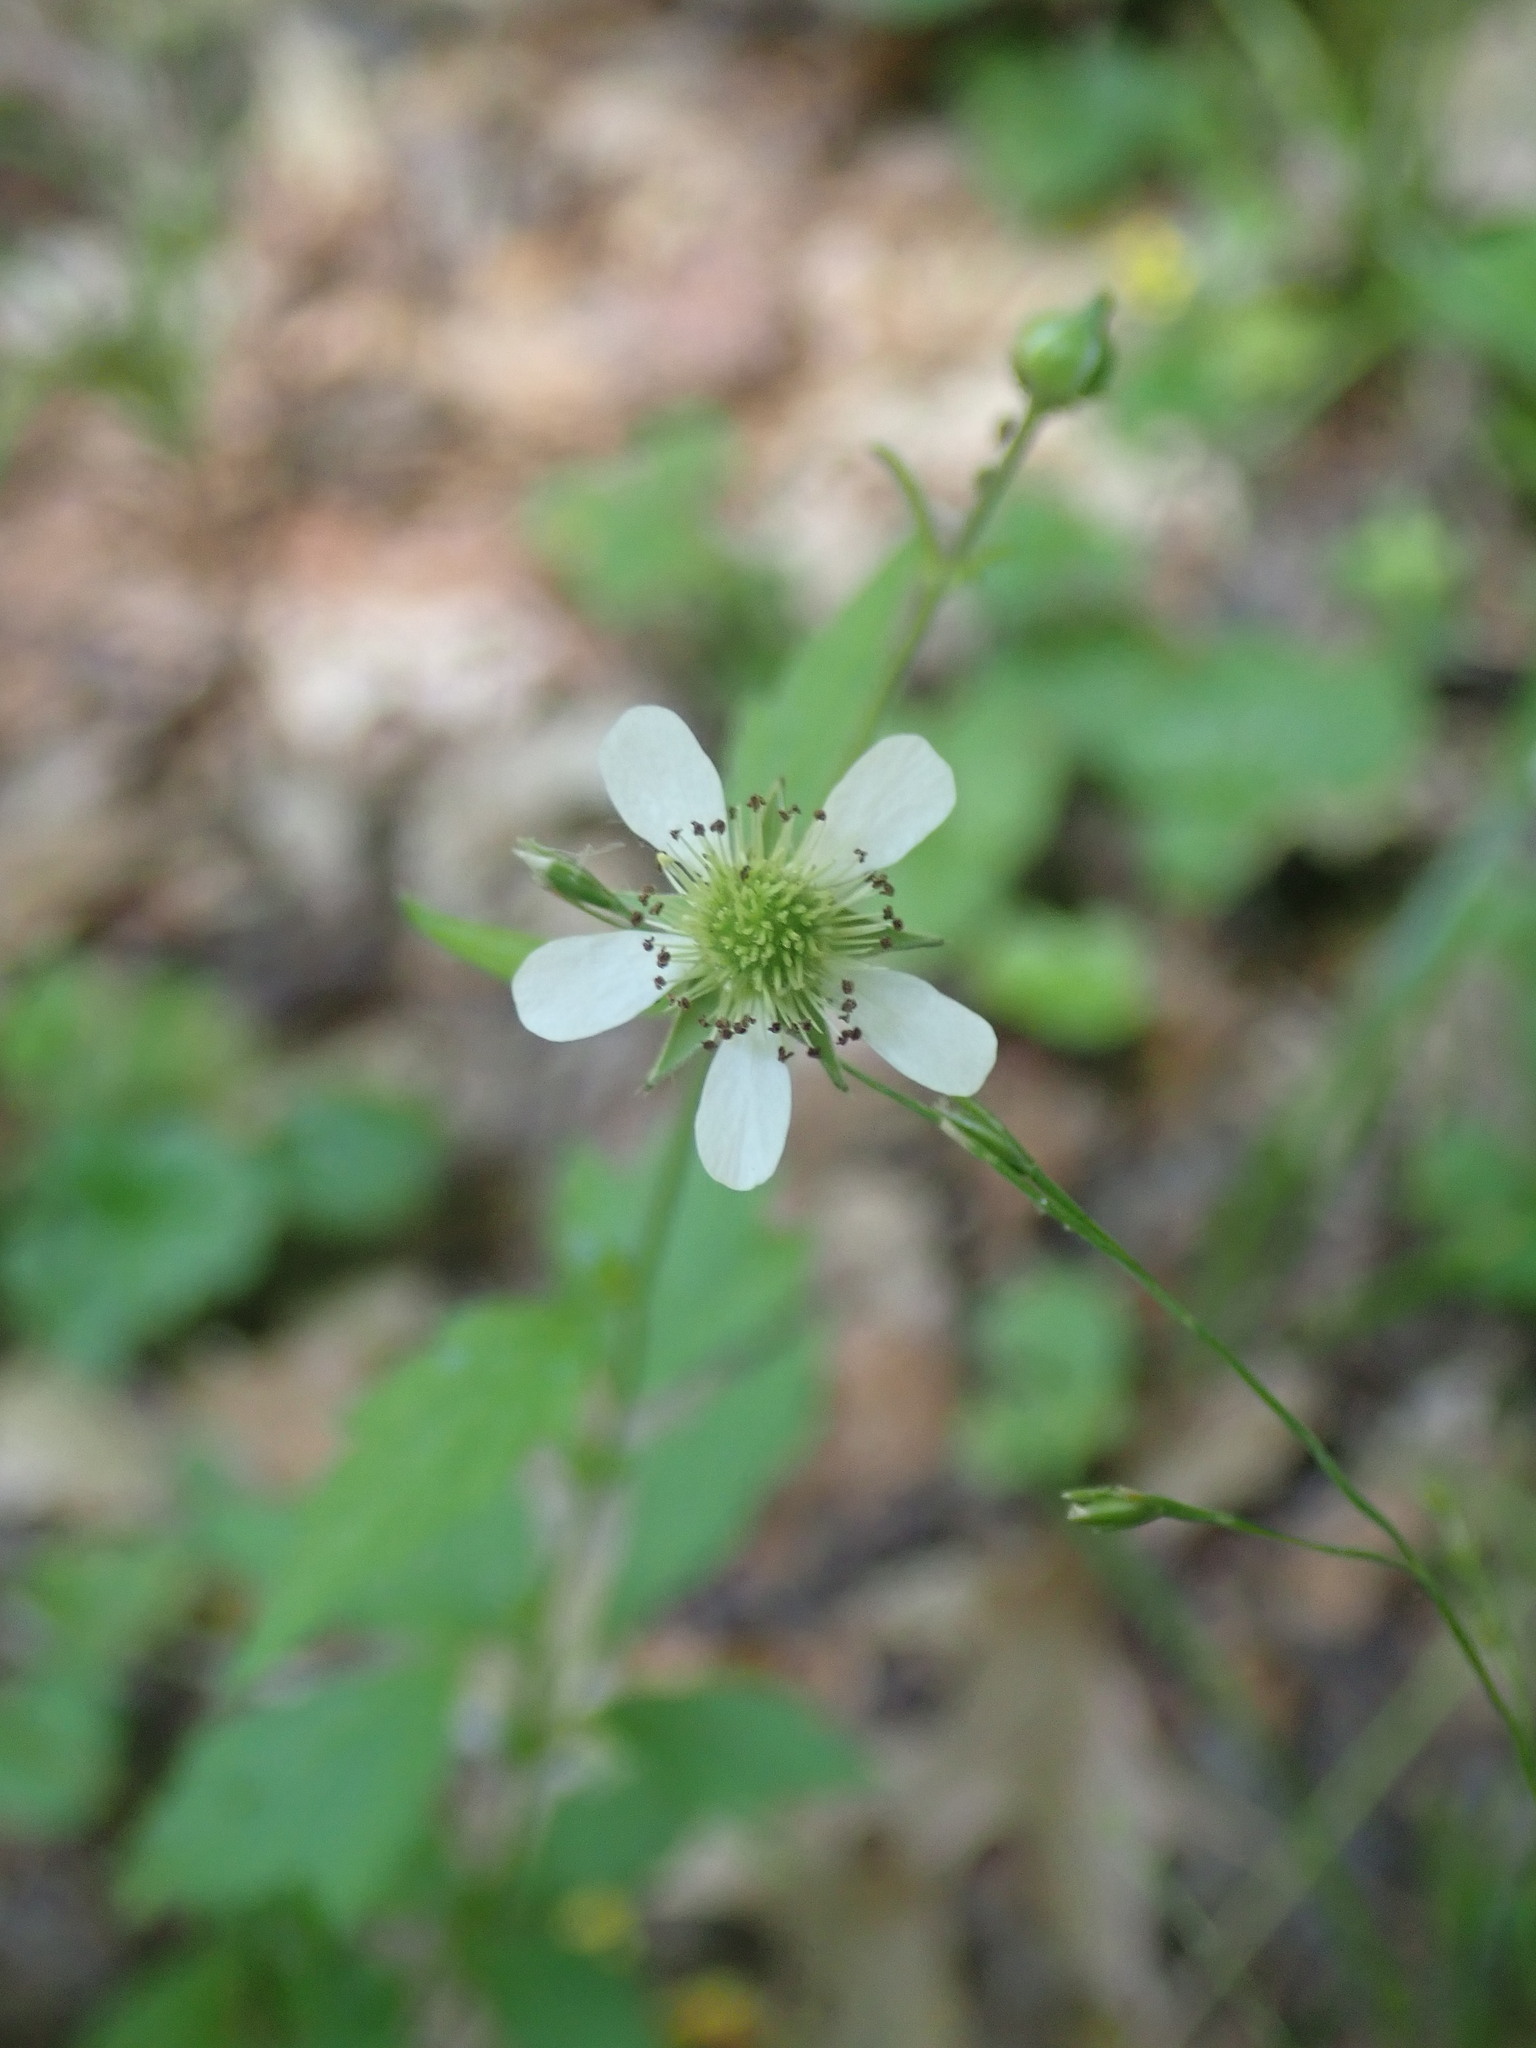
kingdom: Plantae
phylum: Tracheophyta
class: Magnoliopsida
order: Rosales
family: Rosaceae
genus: Geum
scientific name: Geum canadense
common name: White avens
